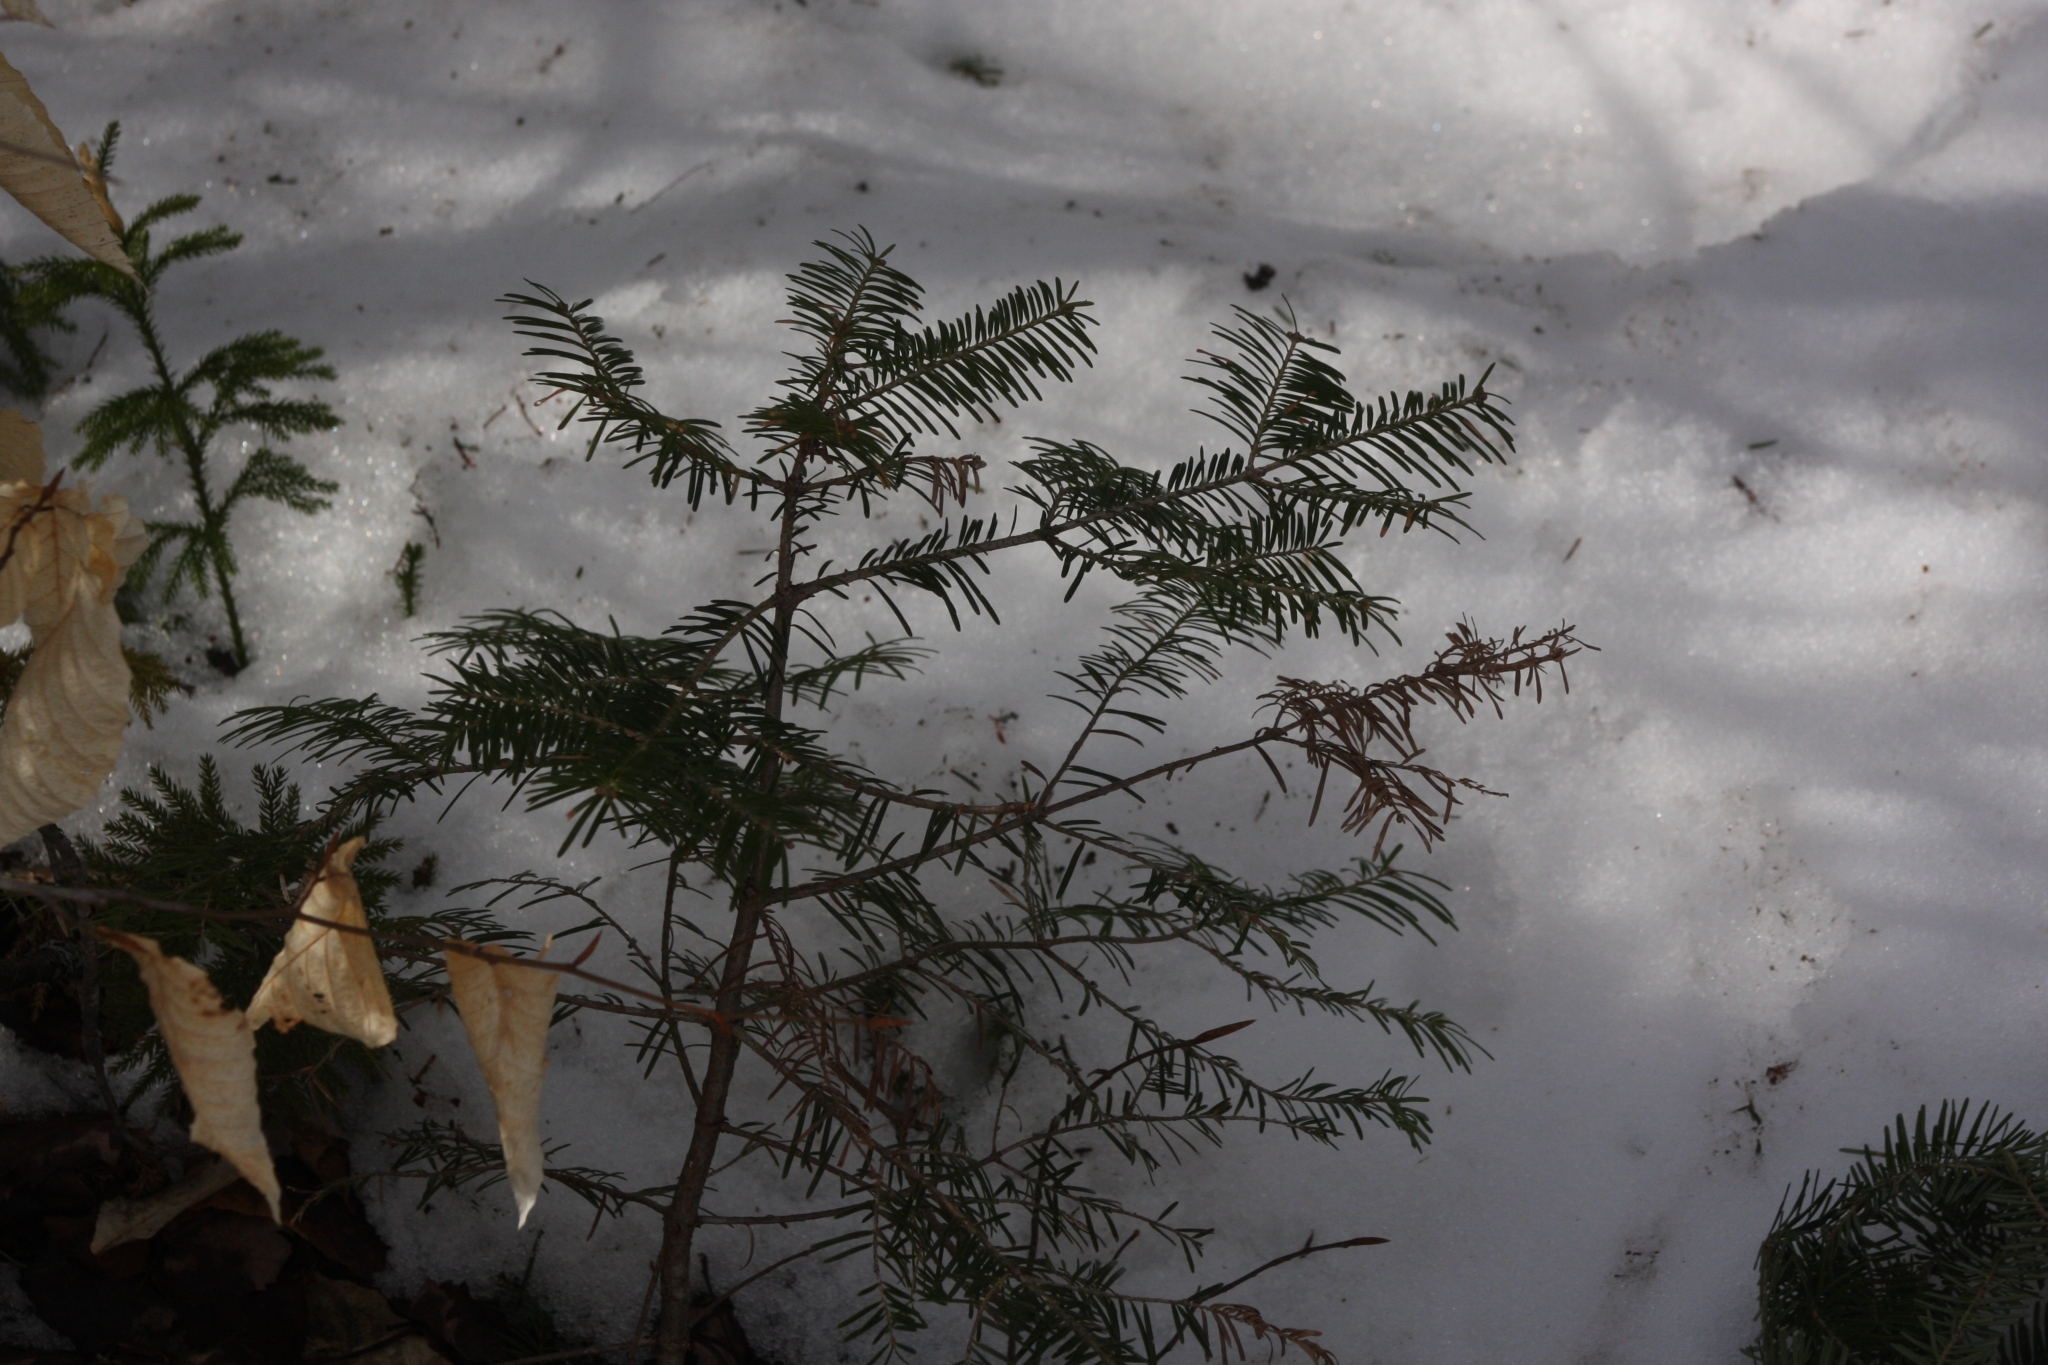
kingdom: Plantae
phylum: Tracheophyta
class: Pinopsida
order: Pinales
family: Pinaceae
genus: Abies
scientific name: Abies balsamea
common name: Balsam fir
